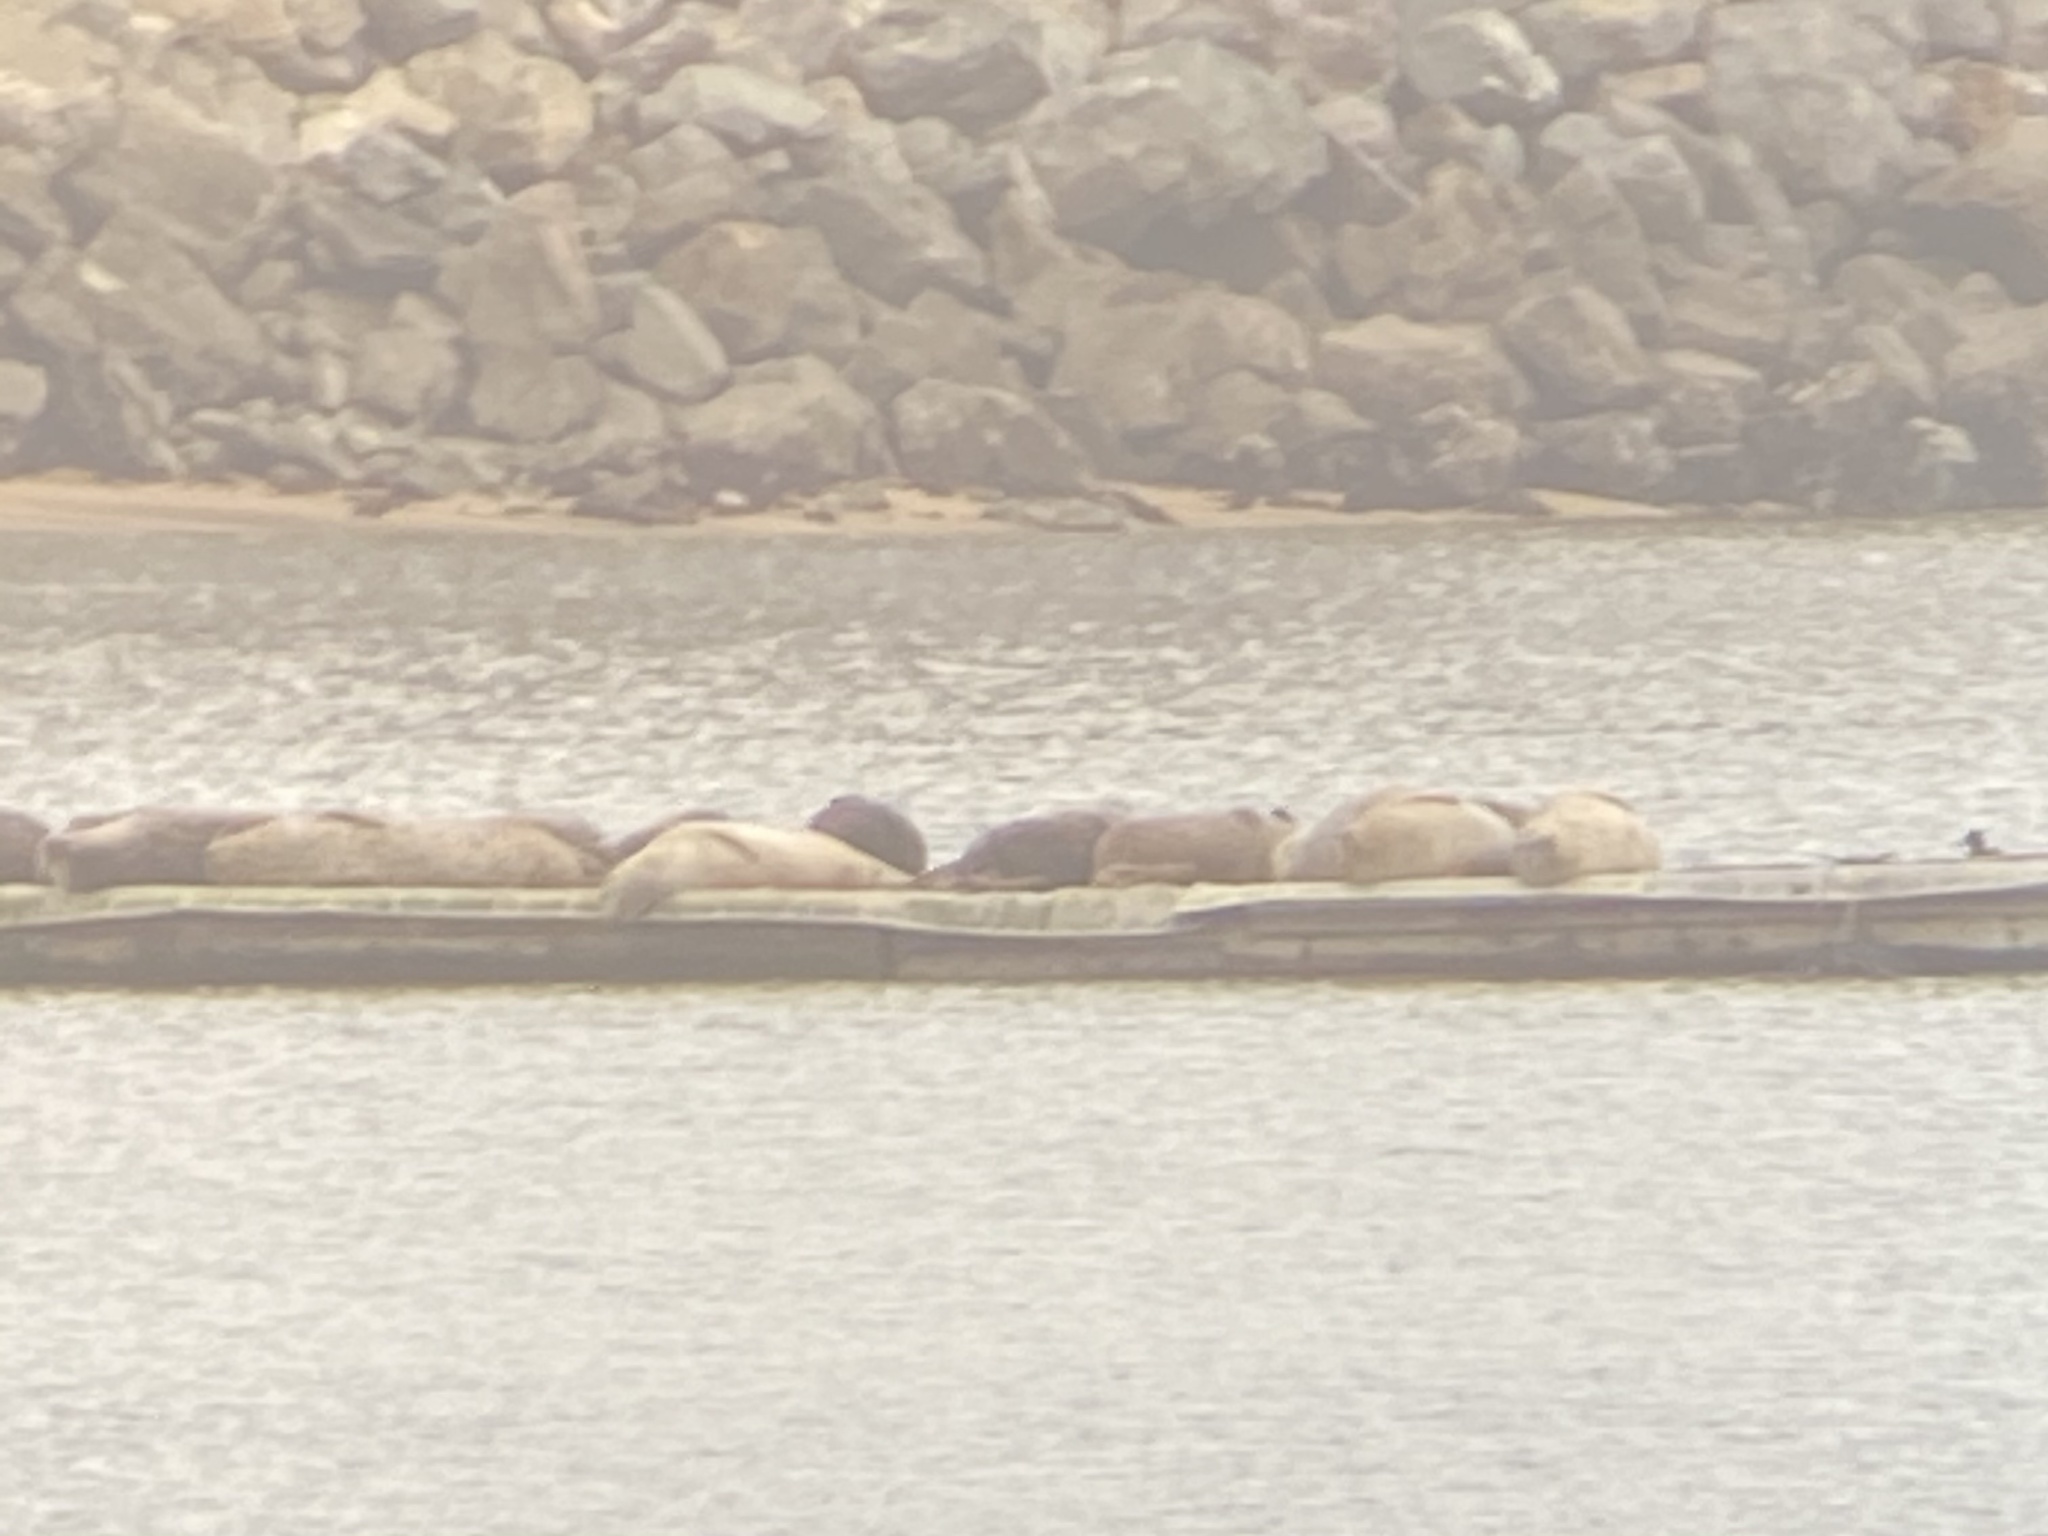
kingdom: Animalia
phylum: Chordata
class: Mammalia
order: Carnivora
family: Phocidae
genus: Phoca
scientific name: Phoca vitulina
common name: Harbor seal
